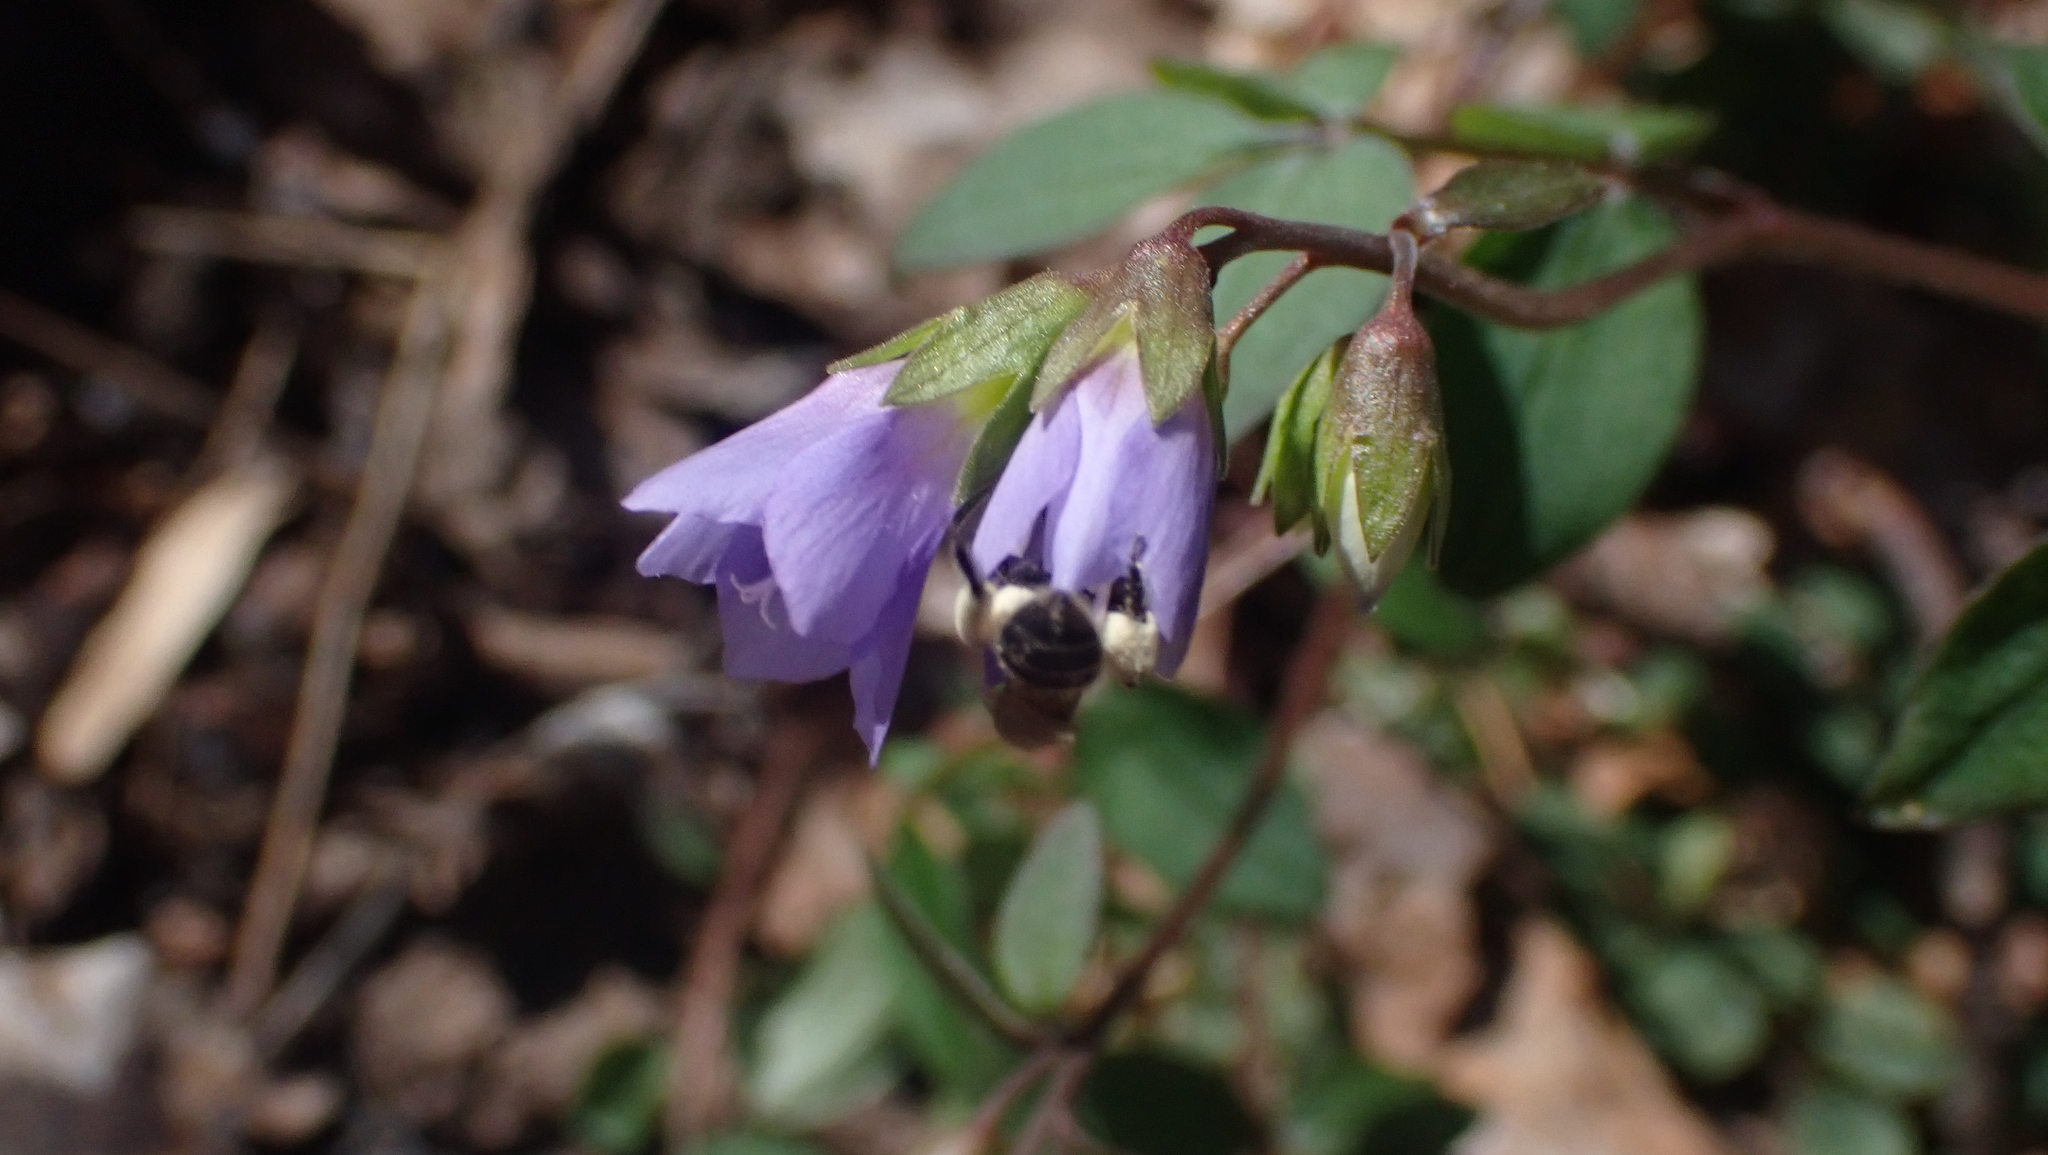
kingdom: Plantae
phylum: Tracheophyta
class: Magnoliopsida
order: Ericales
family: Polemoniaceae
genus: Polemonium
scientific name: Polemonium reptans
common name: Creeping jacob's-ladder
